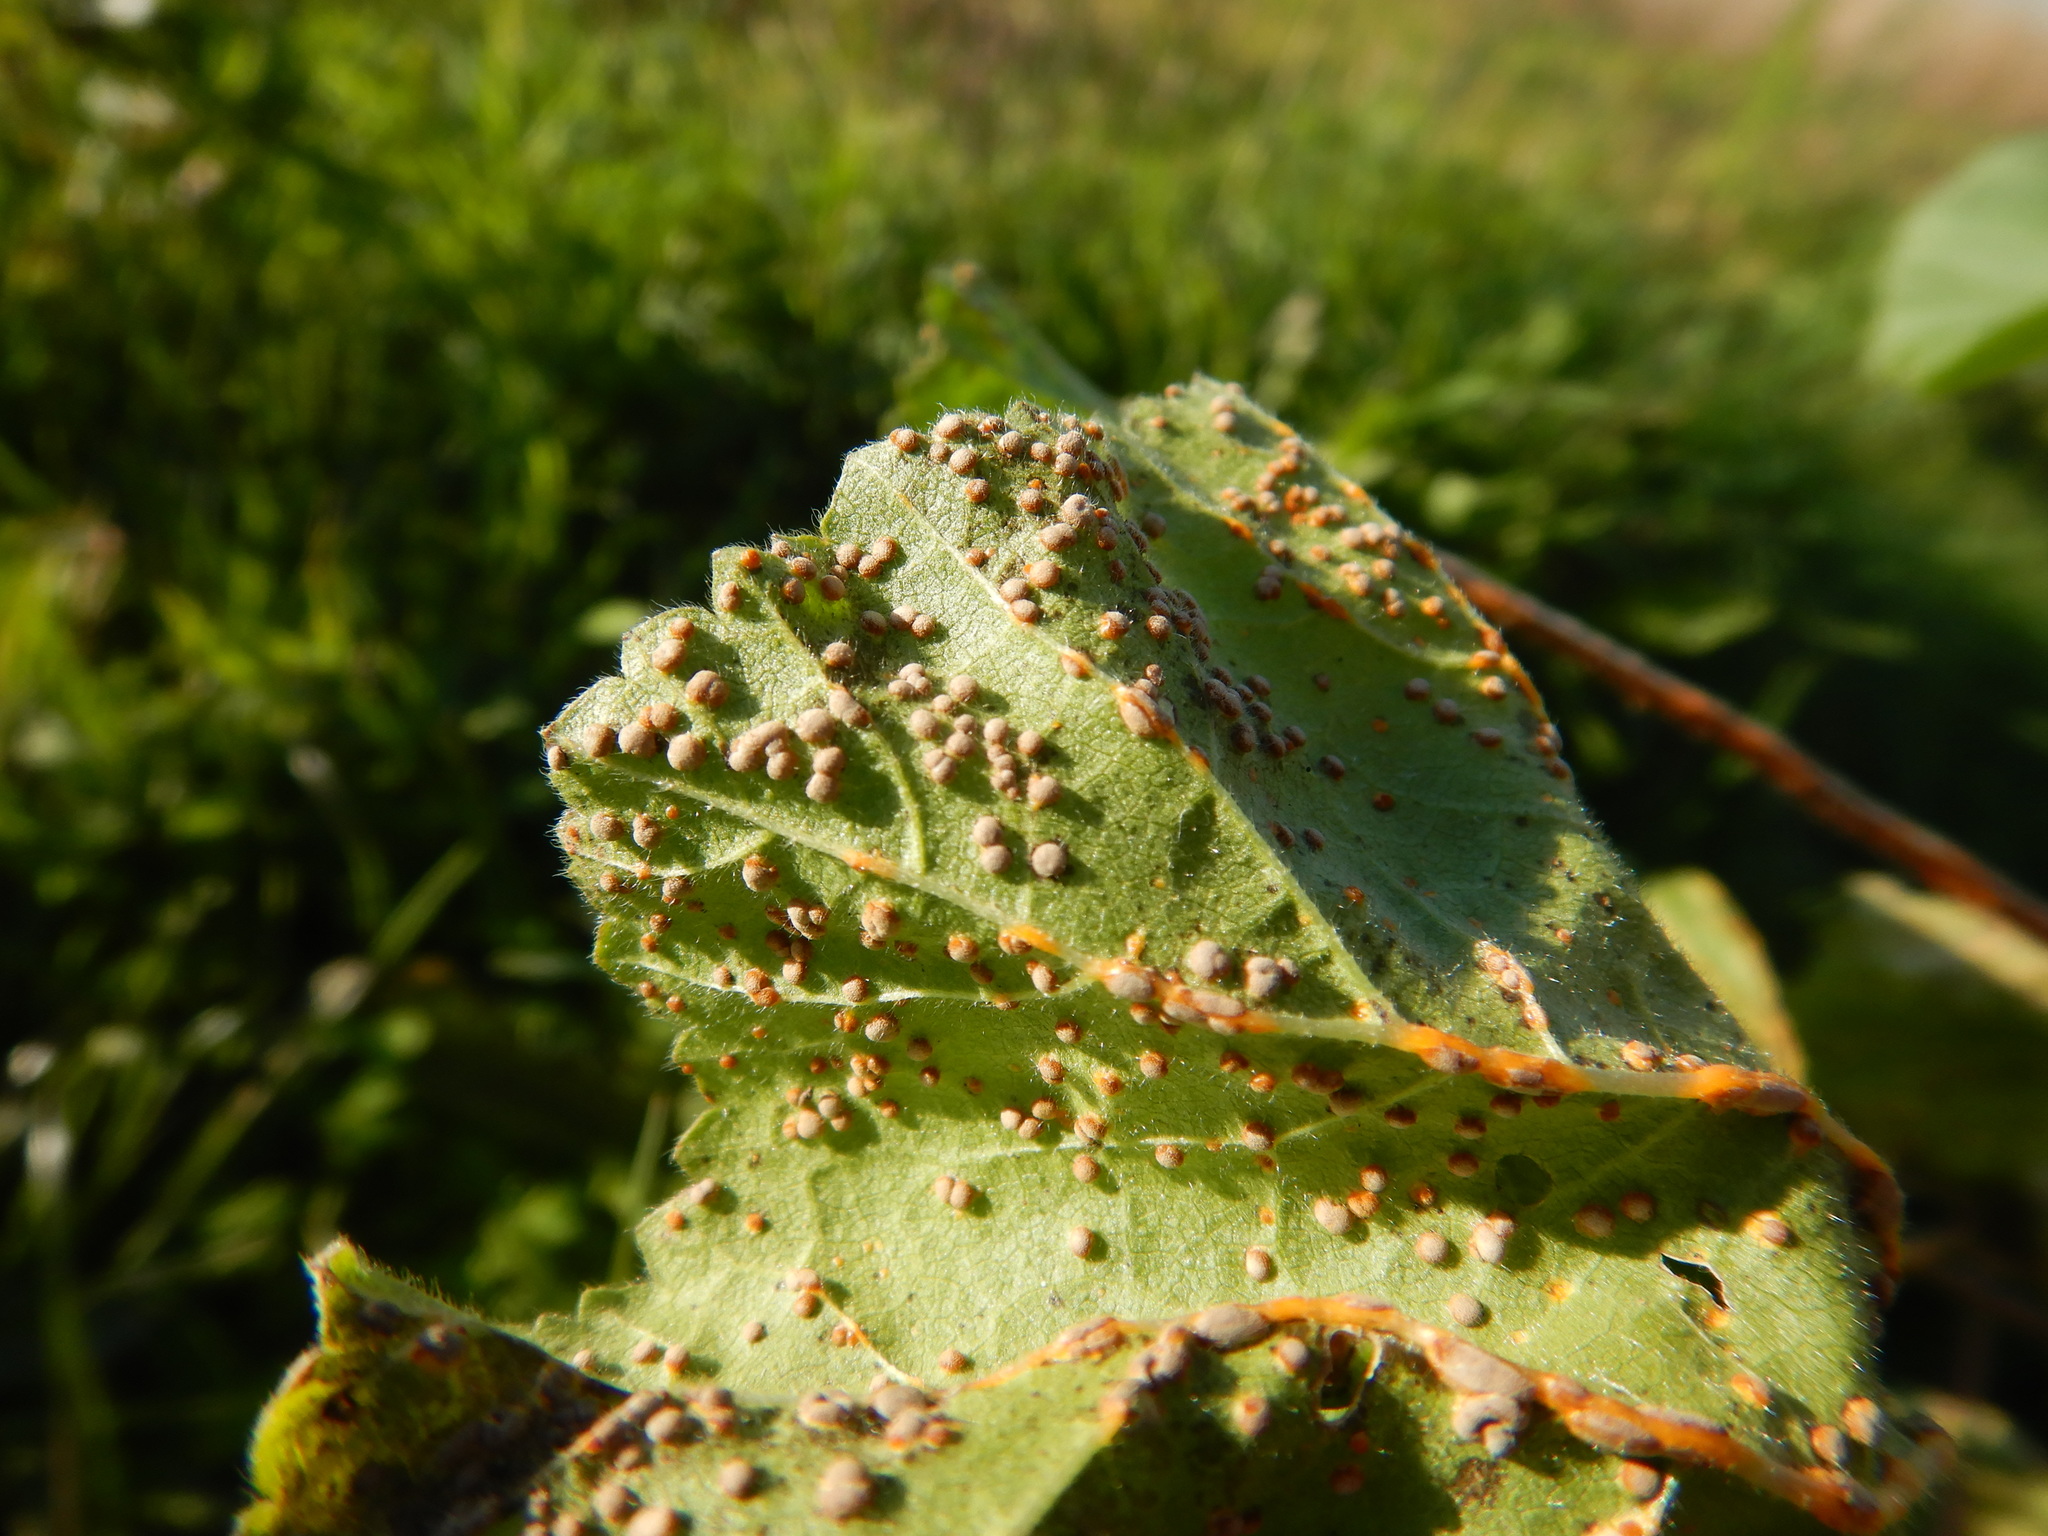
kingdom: Fungi
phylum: Basidiomycota
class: Pucciniomycetes
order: Pucciniales
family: Pucciniaceae
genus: Puccinia
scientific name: Puccinia malvacearum
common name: Hollyhock rust
